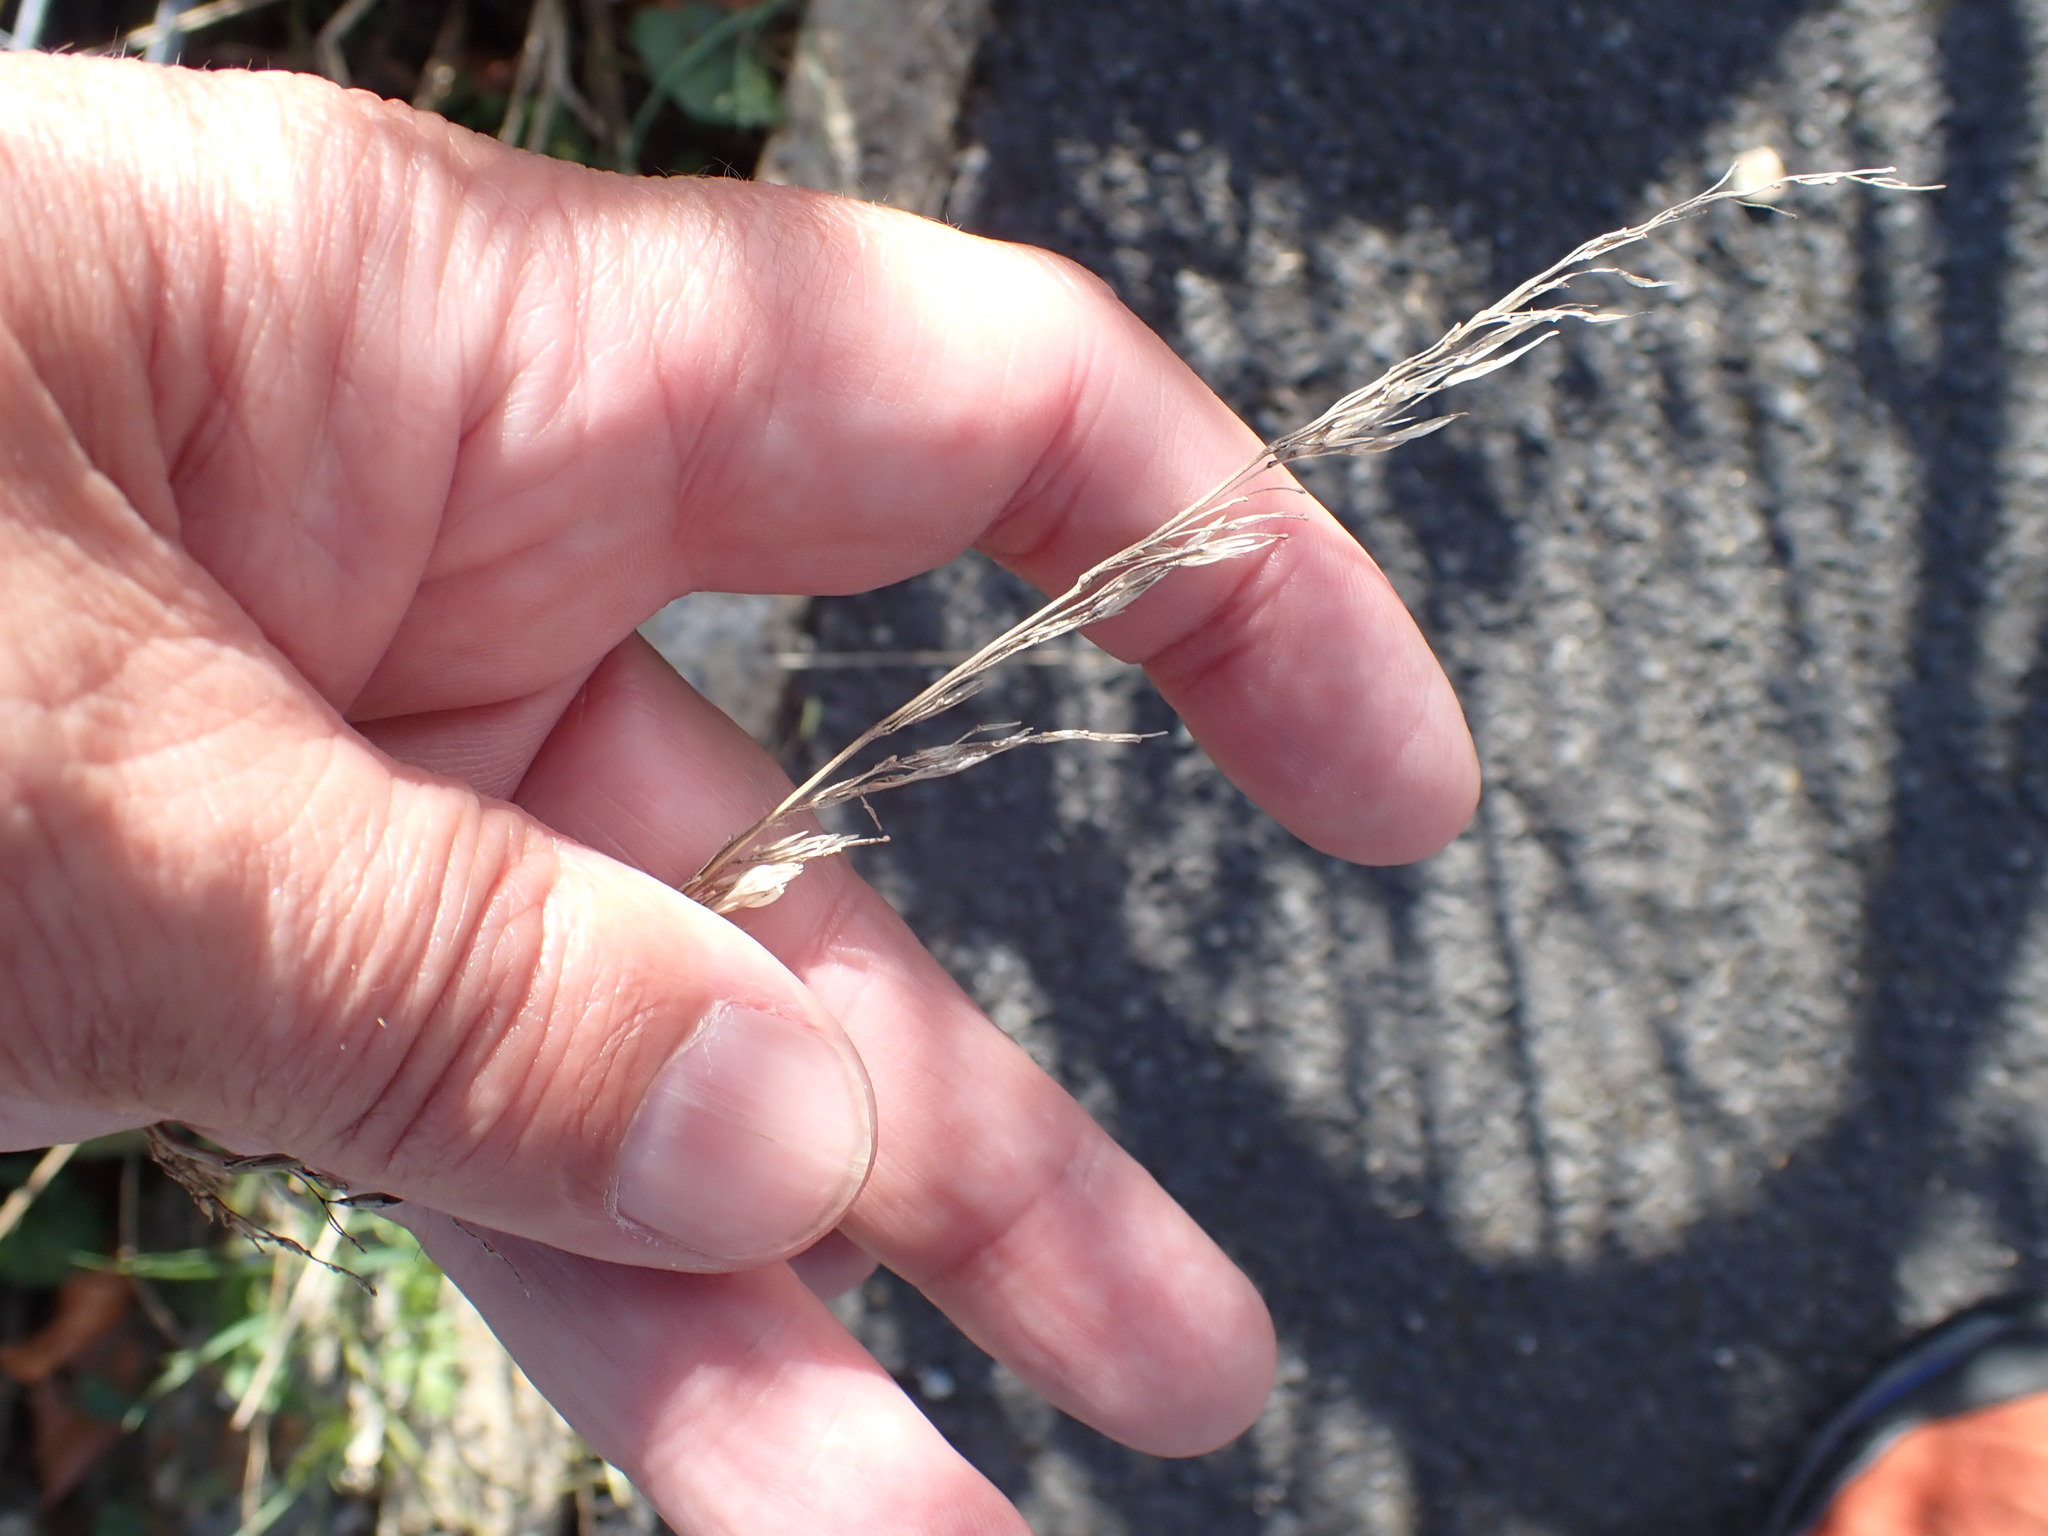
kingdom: Plantae
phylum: Tracheophyta
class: Liliopsida
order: Poales
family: Poaceae
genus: Arrhenatherum
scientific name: Arrhenatherum elatius
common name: Tall oatgrass
